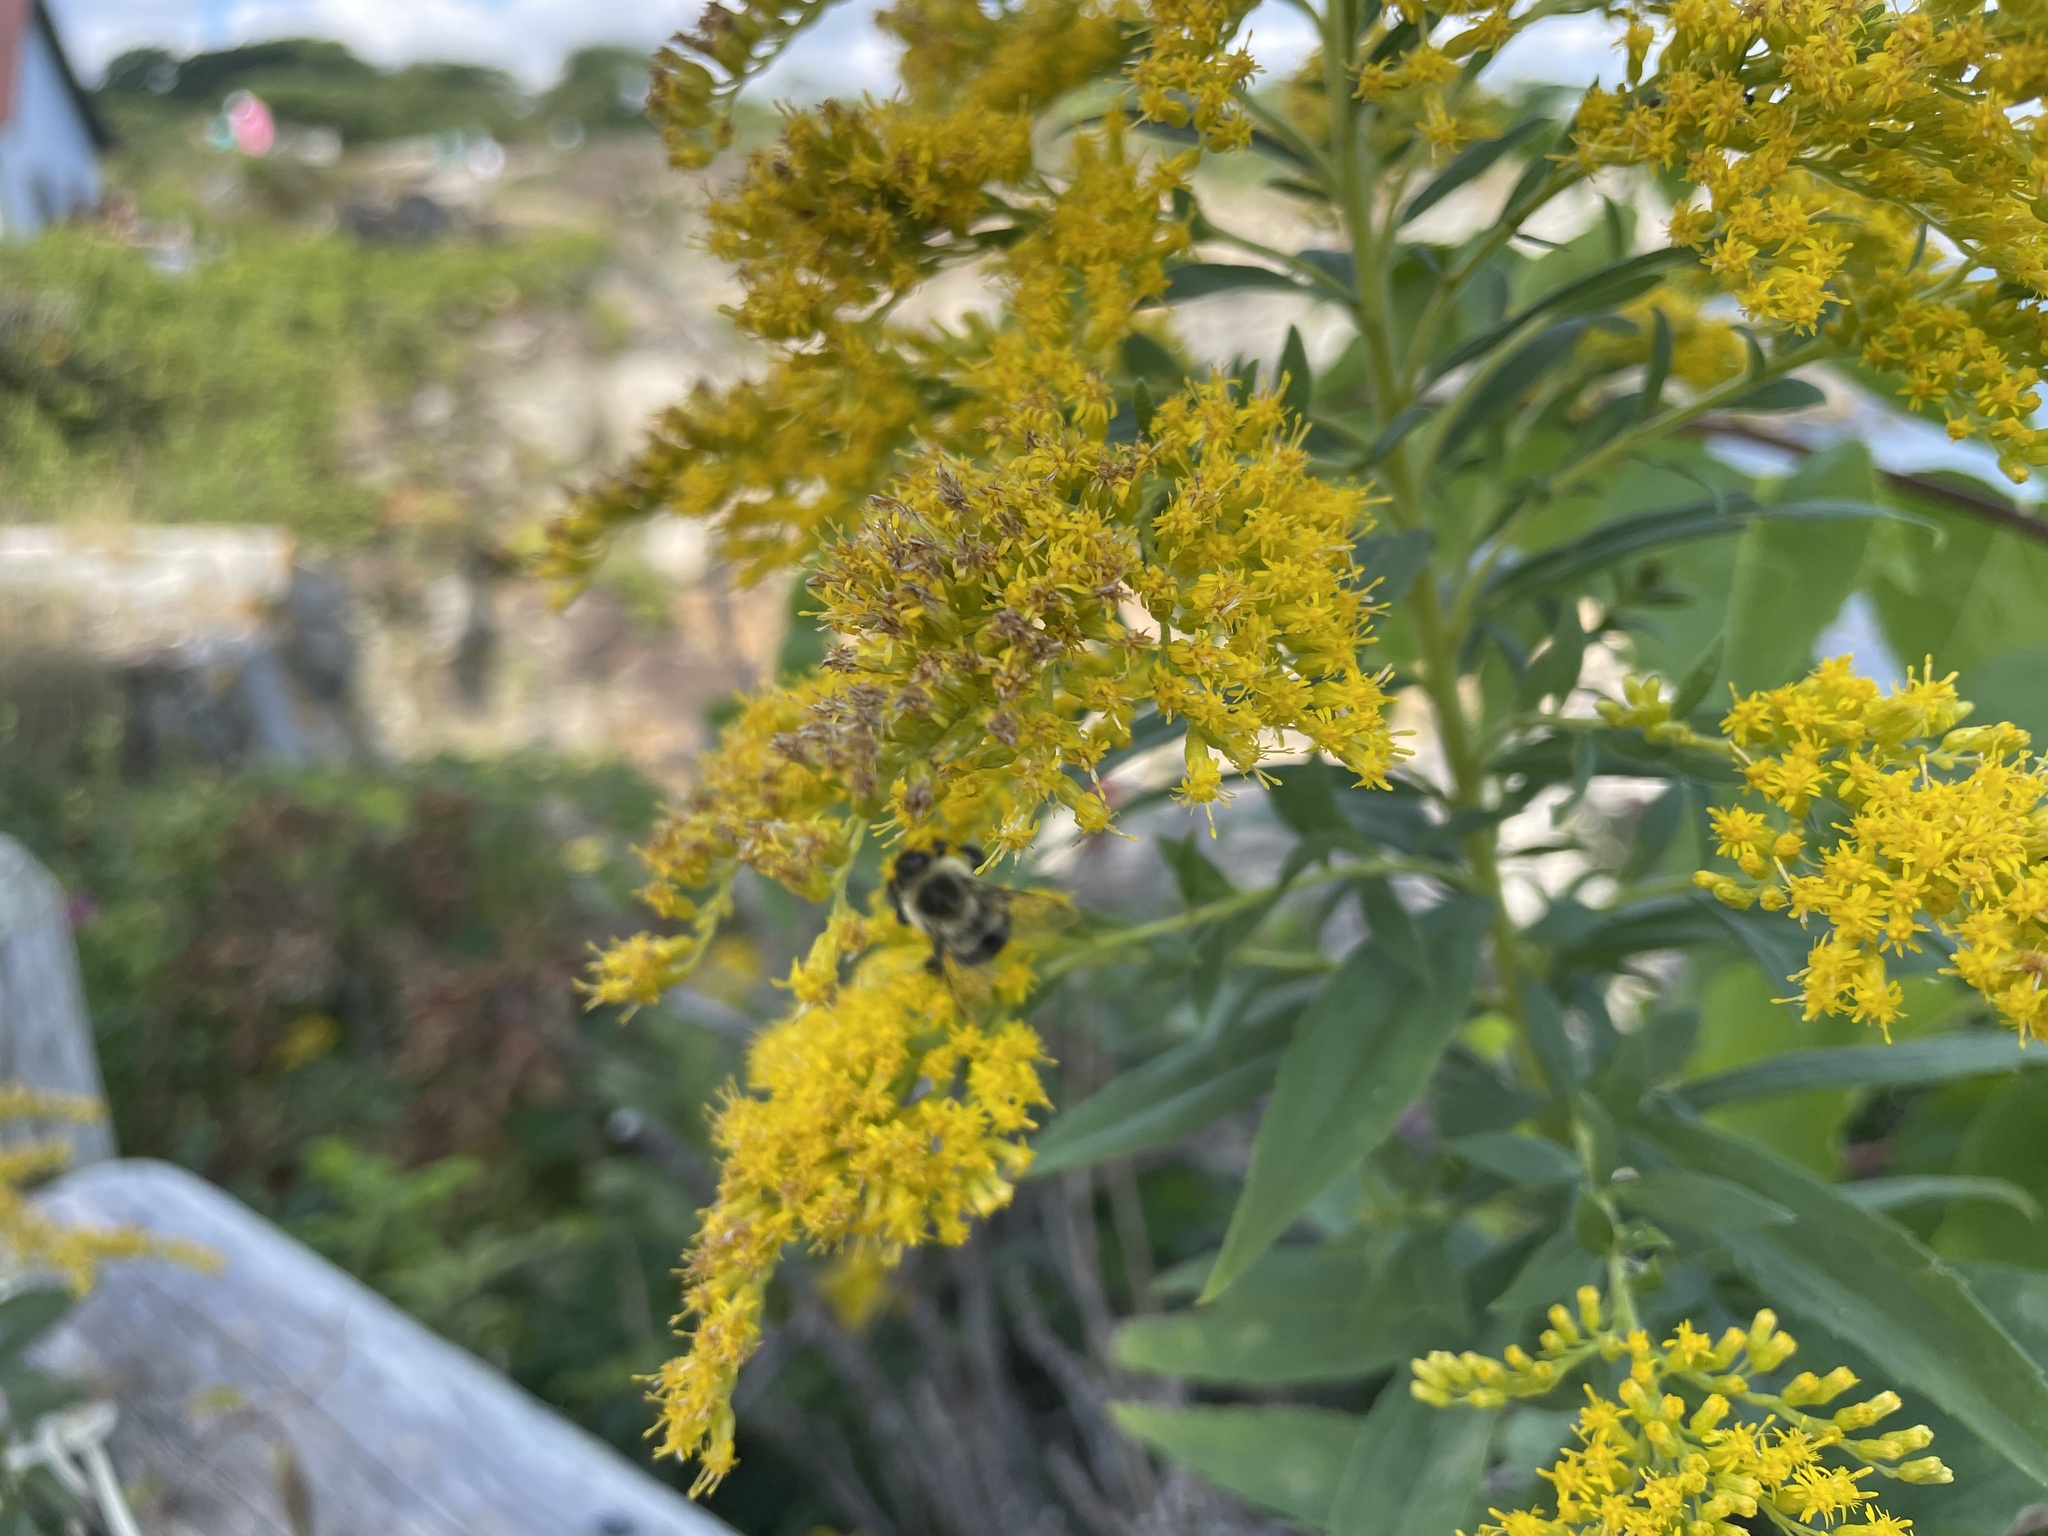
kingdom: Animalia
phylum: Arthropoda
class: Insecta
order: Hymenoptera
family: Apidae
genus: Bombus
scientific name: Bombus impatiens
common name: Common eastern bumble bee
